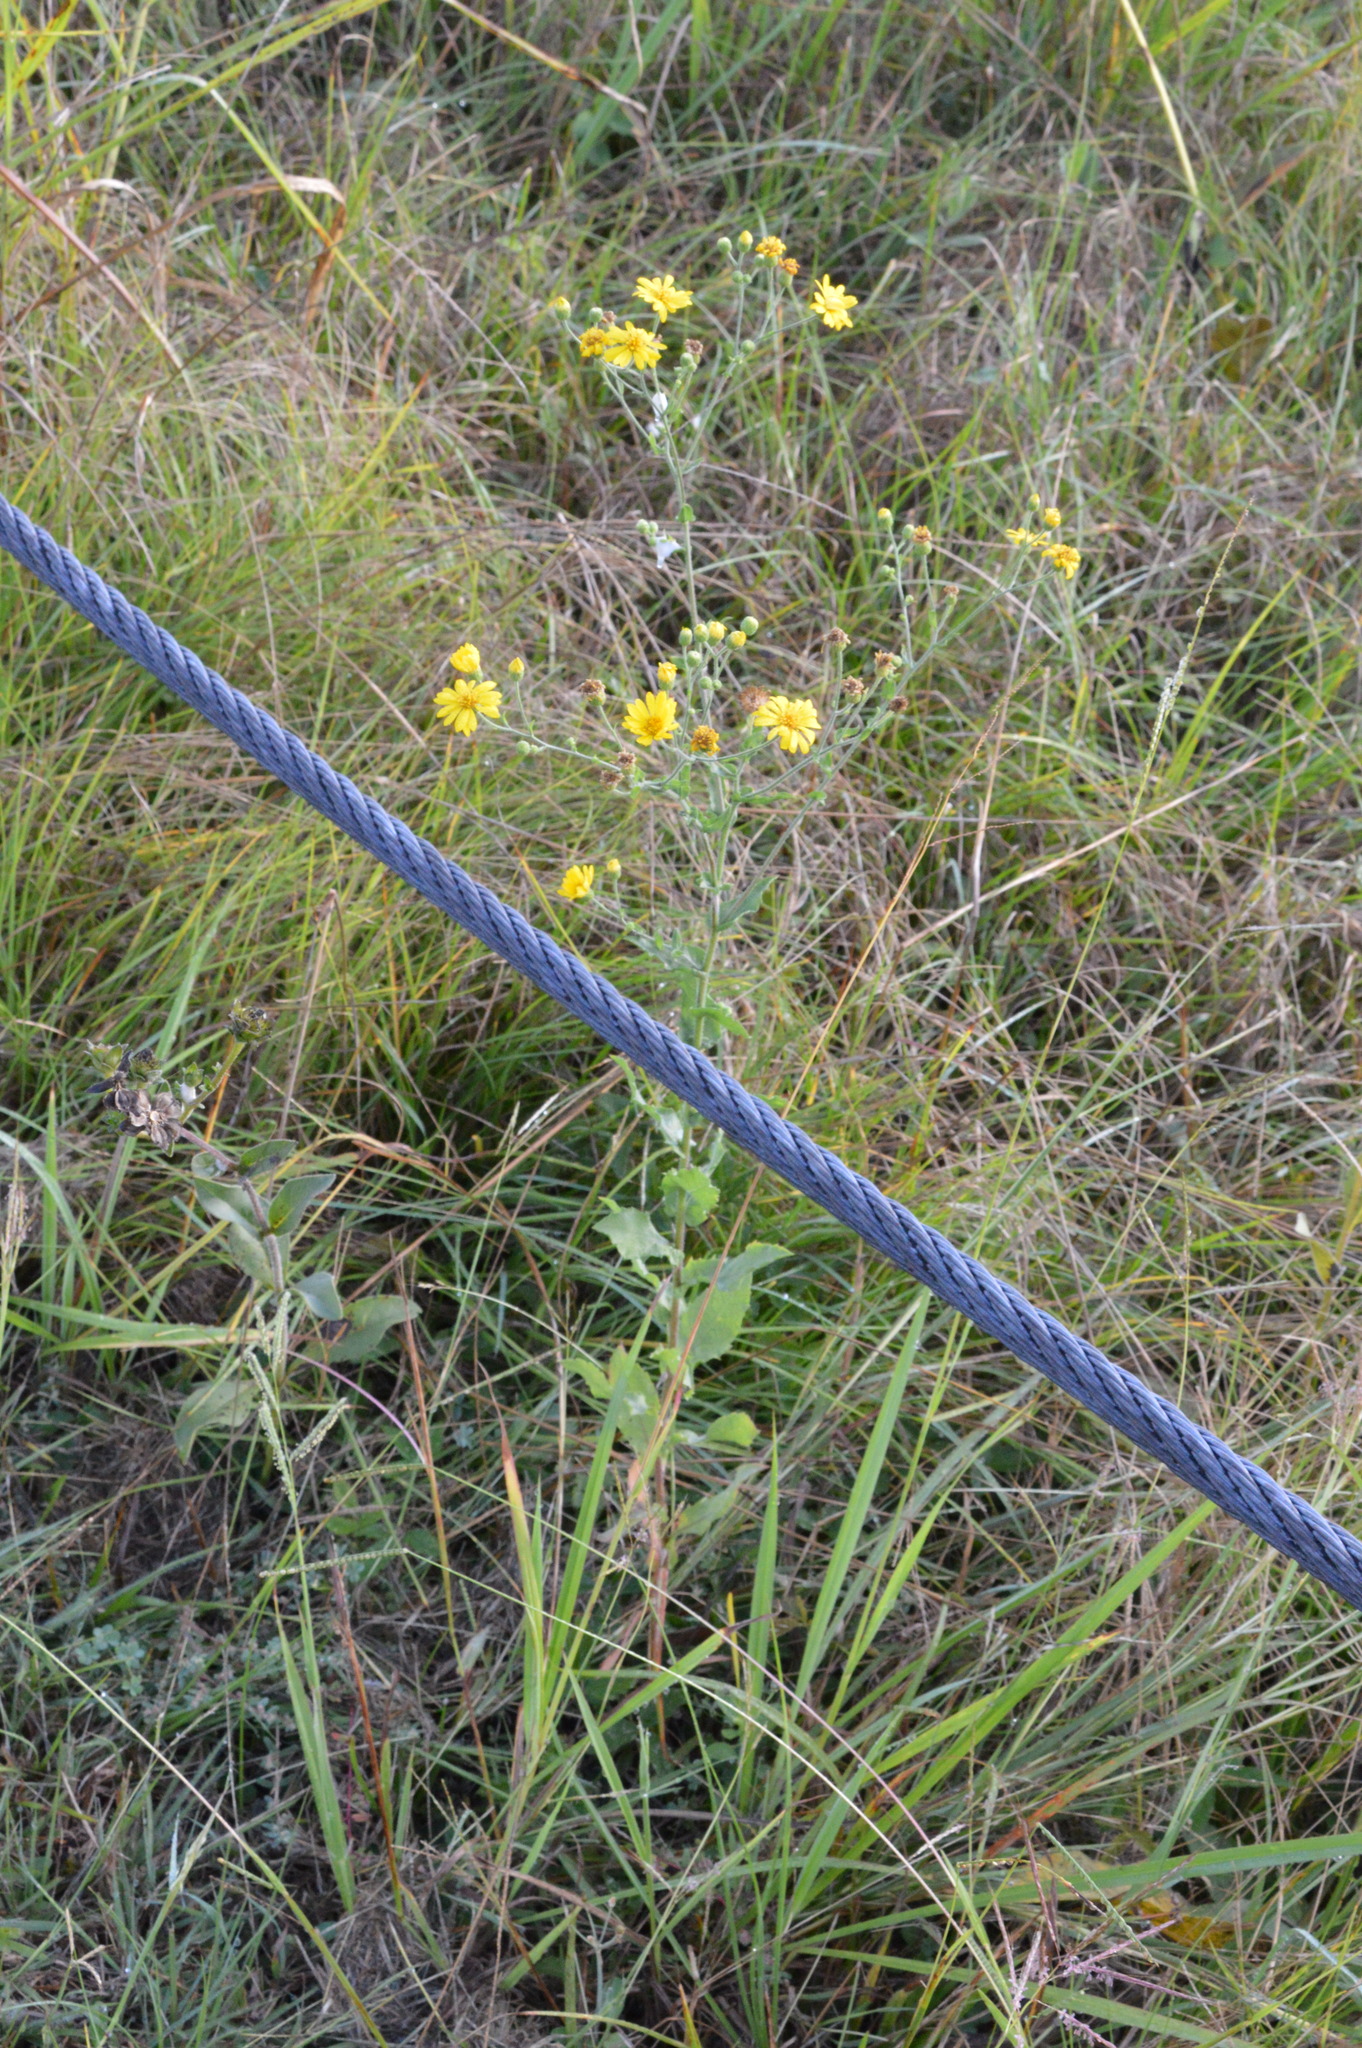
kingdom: Plantae
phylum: Tracheophyta
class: Magnoliopsida
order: Asterales
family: Asteraceae
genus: Heterotheca
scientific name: Heterotheca subaxillaris
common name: Camphorweed
